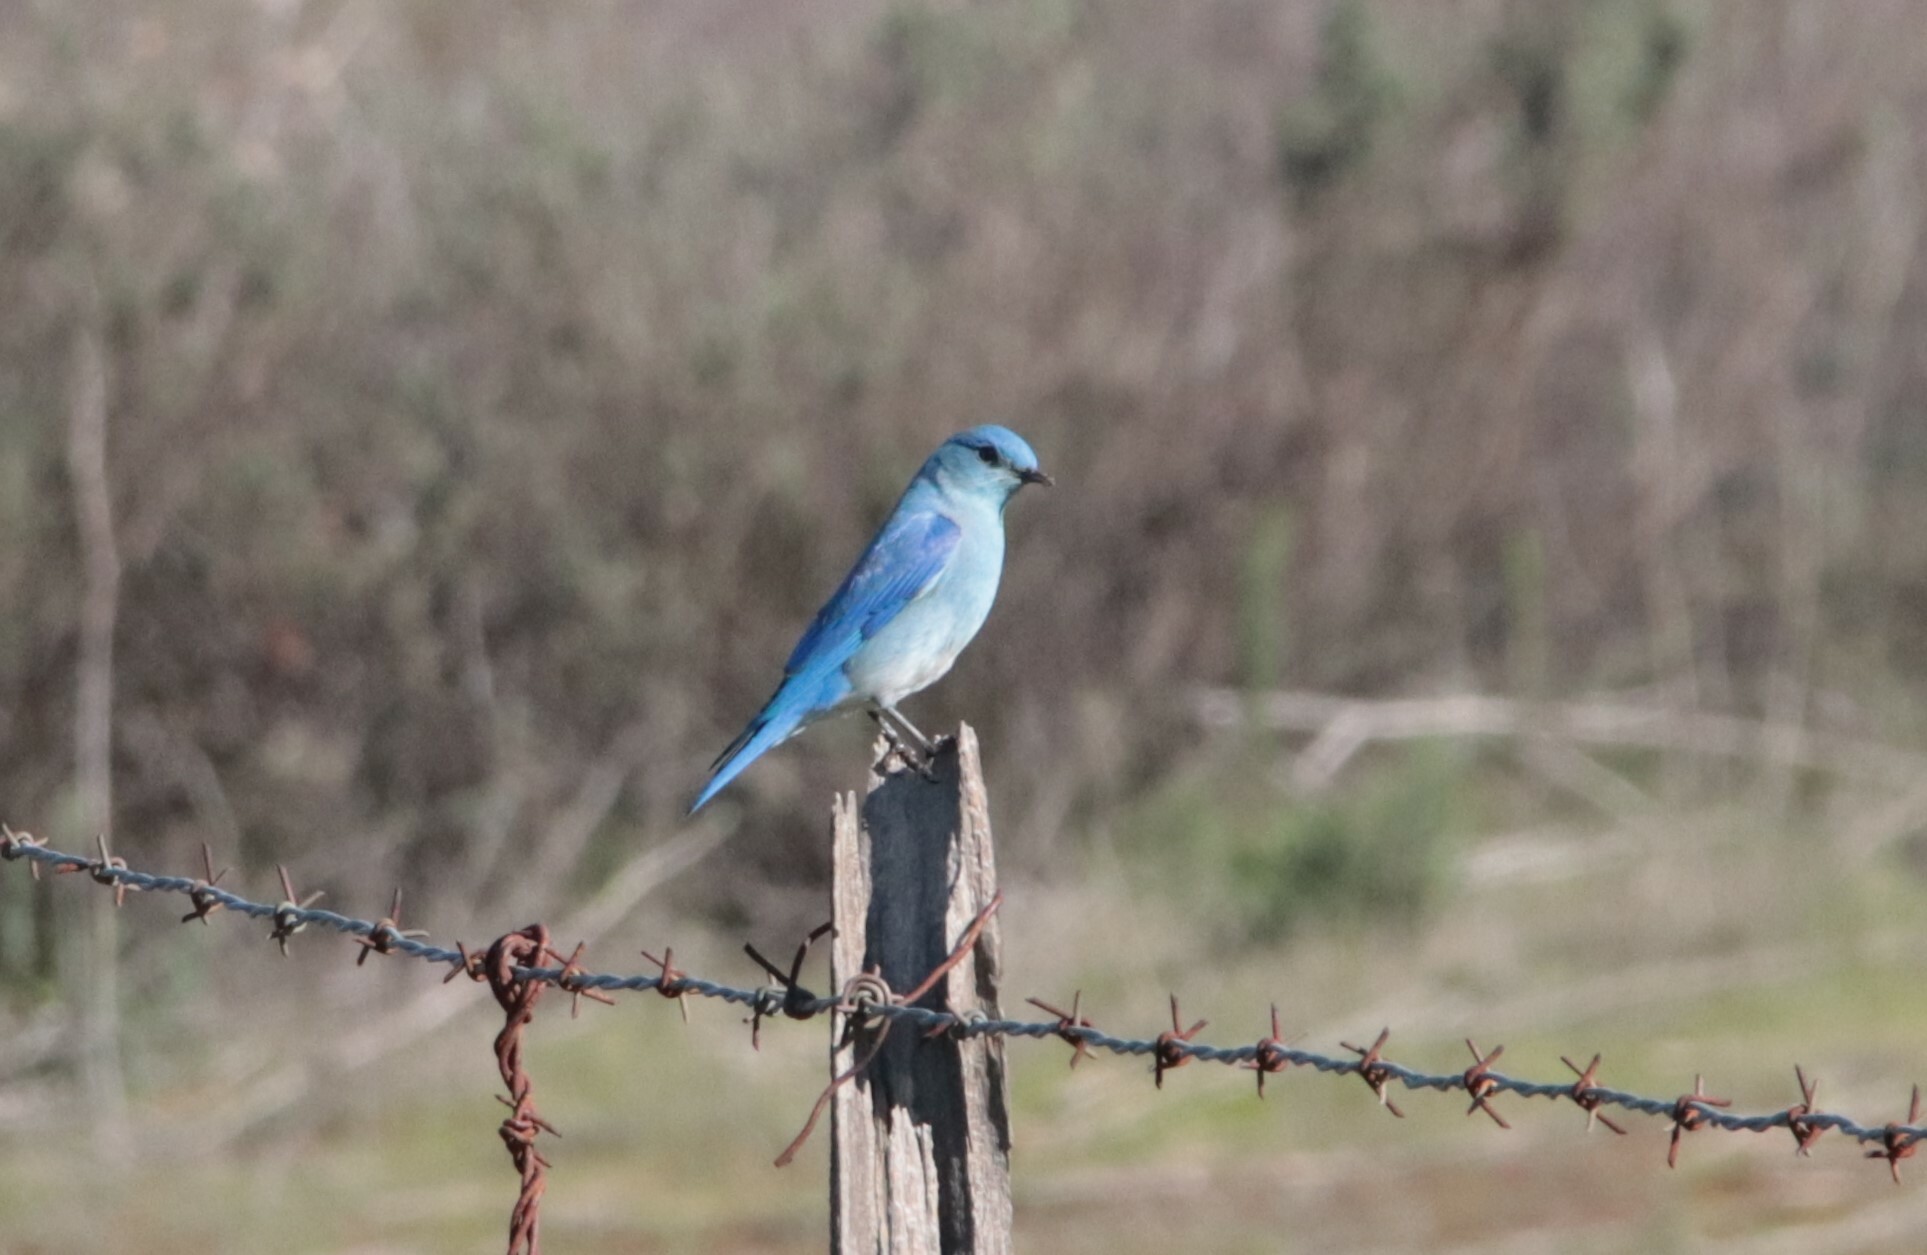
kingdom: Animalia
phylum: Chordata
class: Aves
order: Passeriformes
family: Turdidae
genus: Sialia
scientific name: Sialia currucoides
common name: Mountain bluebird
